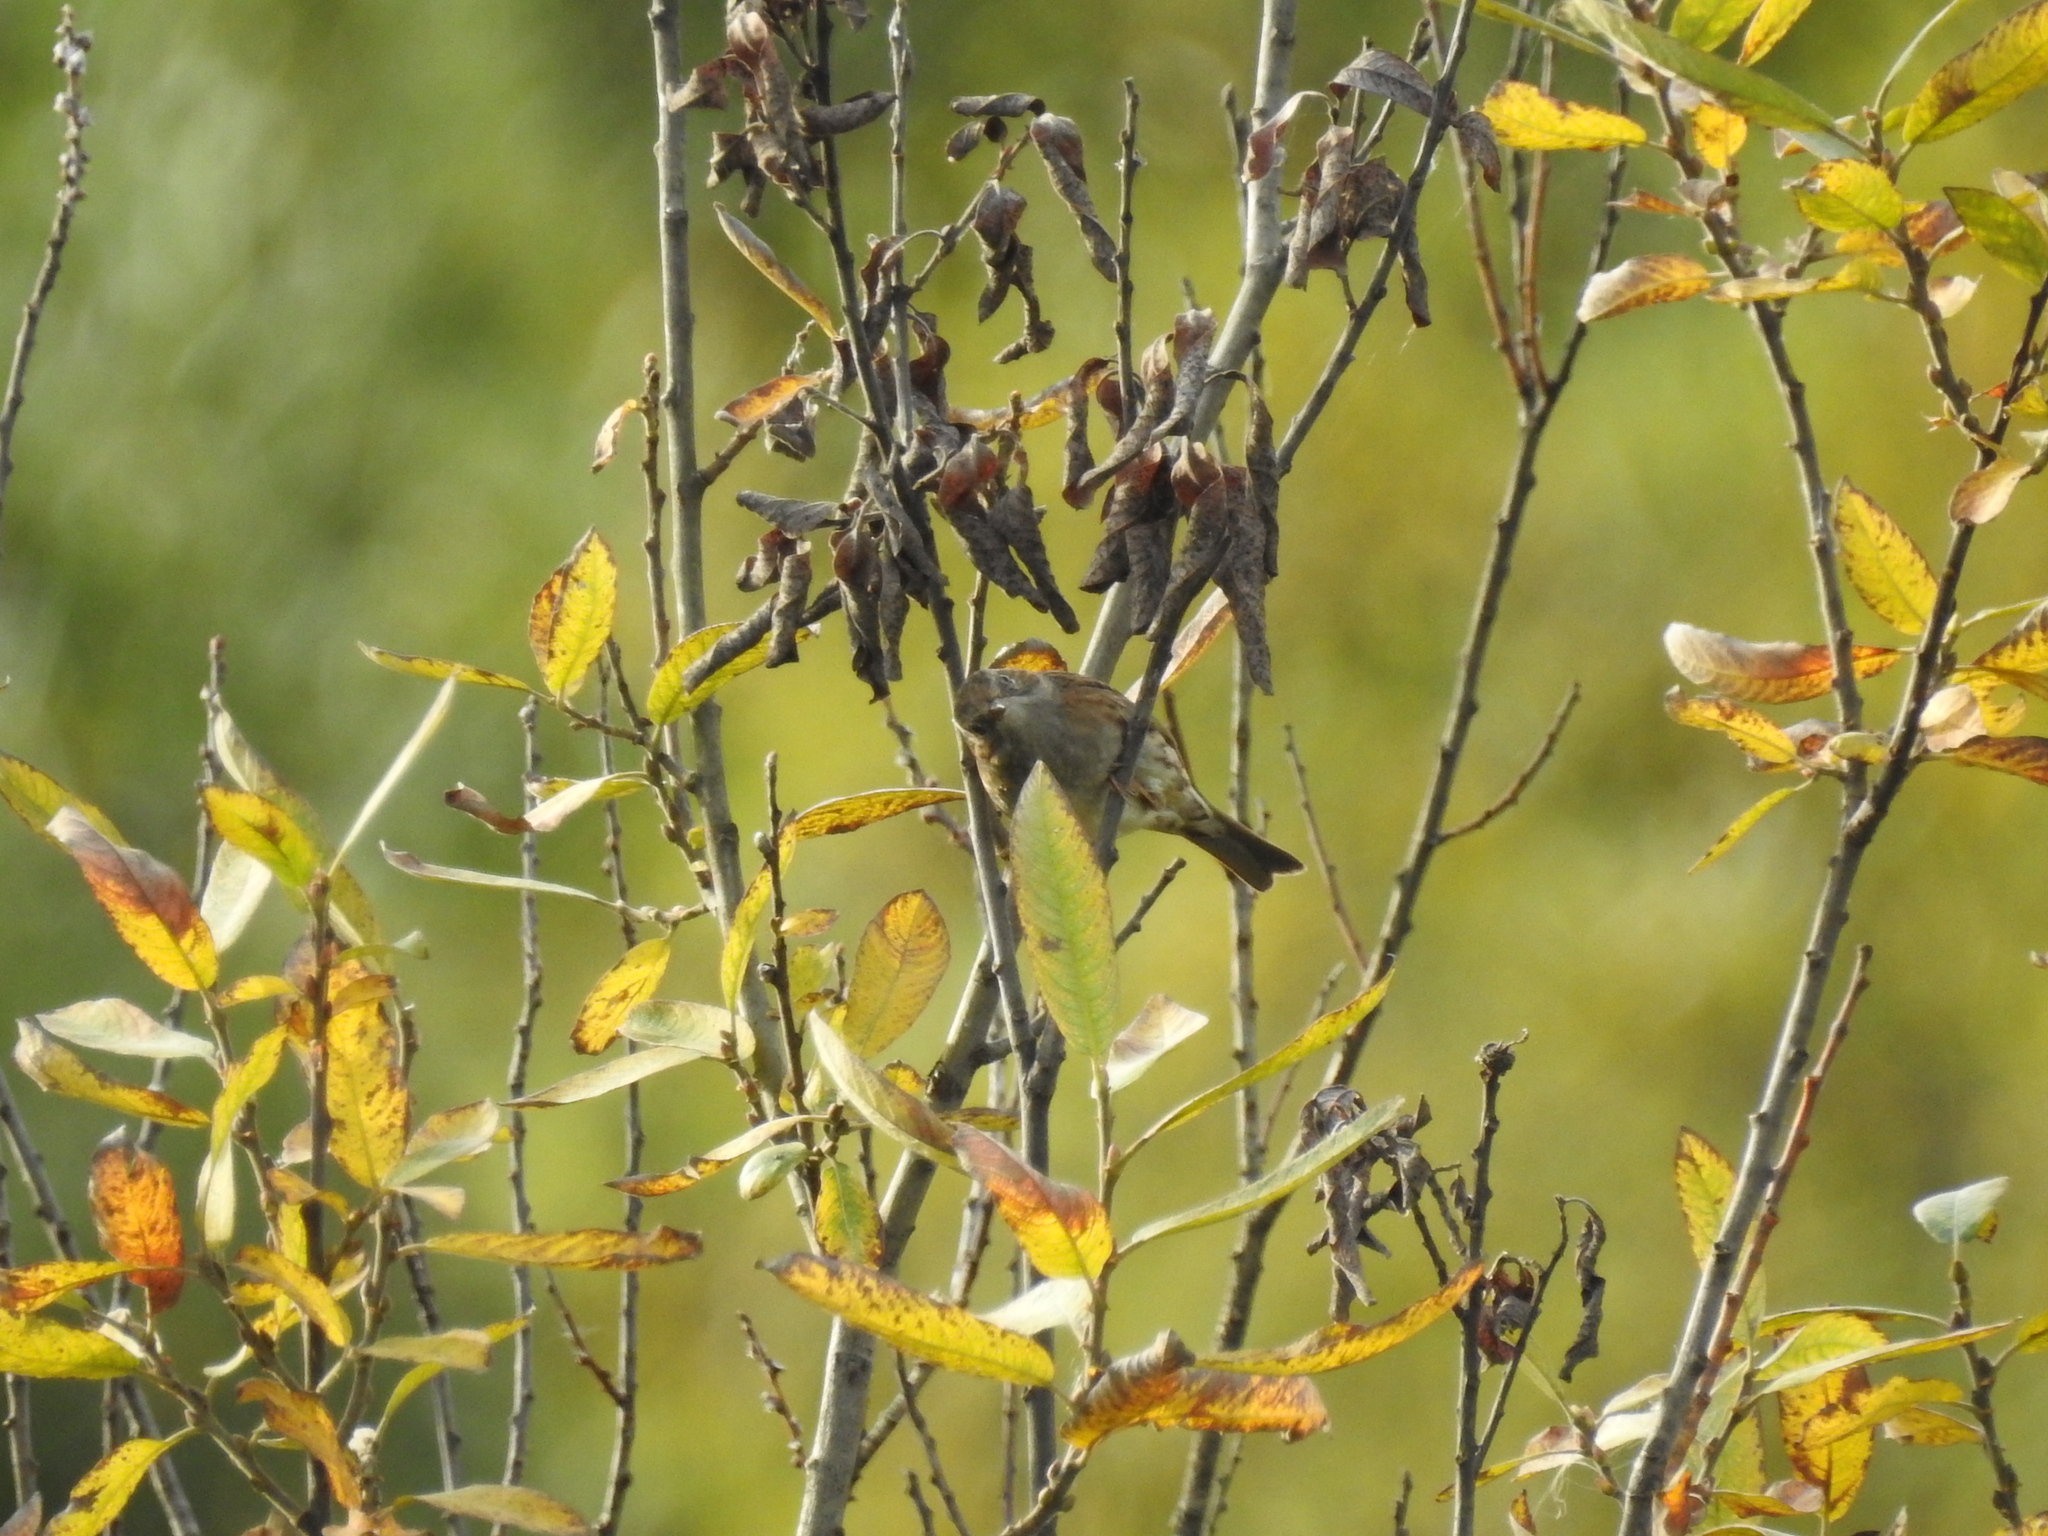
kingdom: Animalia
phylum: Chordata
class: Aves
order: Passeriformes
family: Prunellidae
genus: Prunella
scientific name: Prunella modularis
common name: Dunnock
